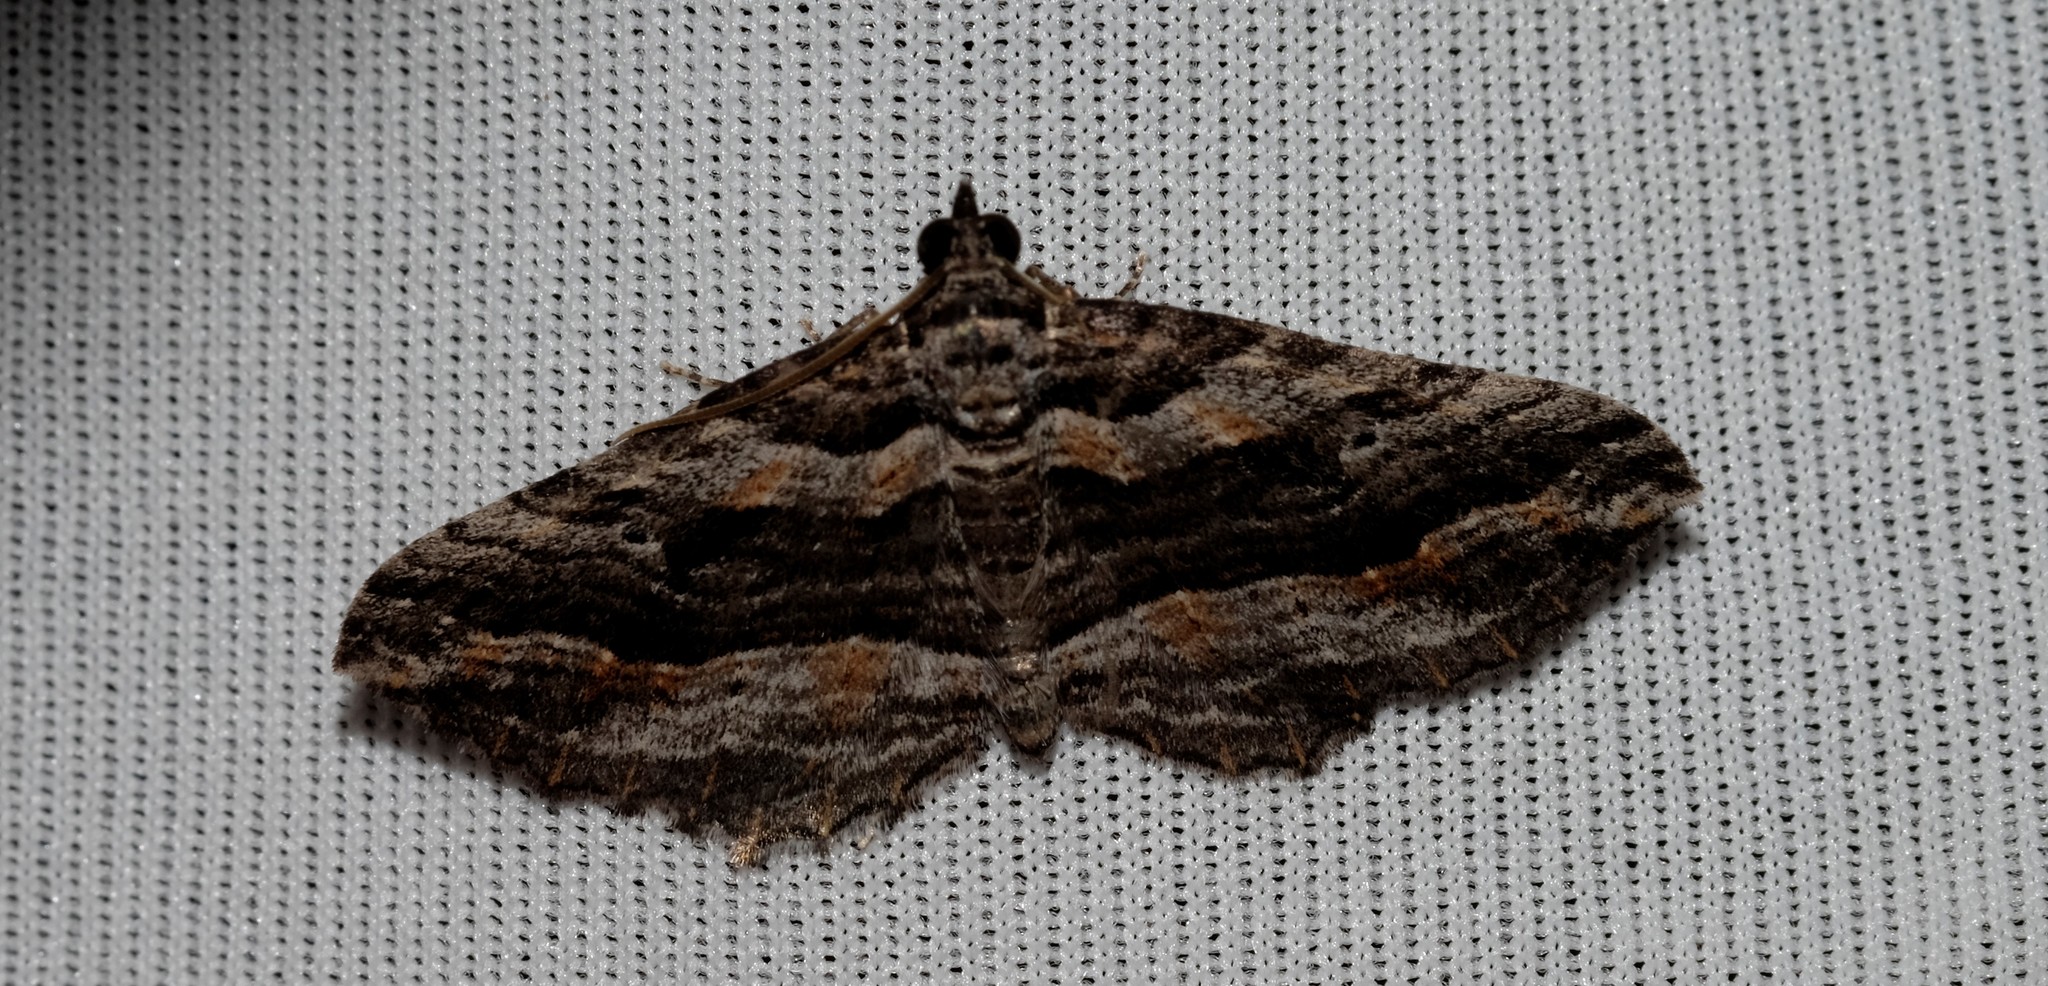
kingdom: Animalia
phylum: Arthropoda
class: Insecta
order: Lepidoptera
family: Geometridae
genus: Chrysolarentia
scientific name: Chrysolarentia severata
